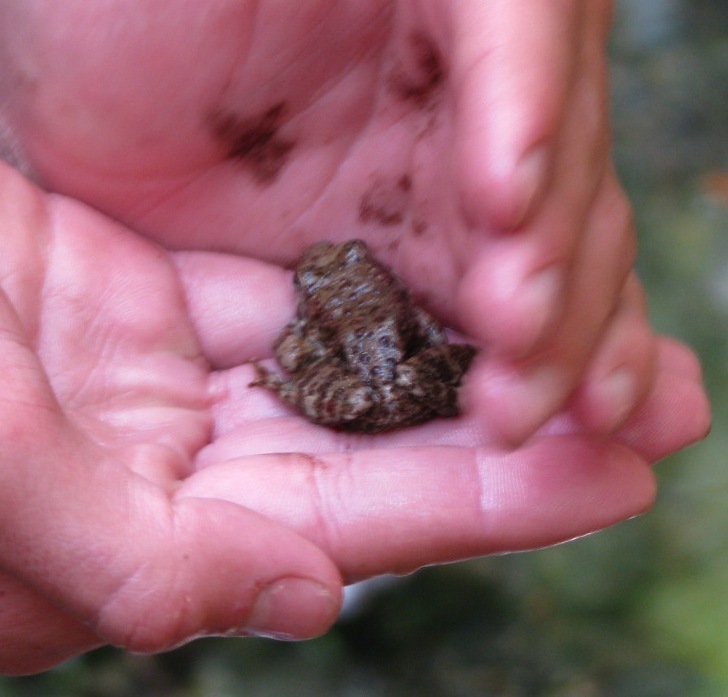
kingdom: Animalia
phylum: Chordata
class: Amphibia
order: Anura
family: Ranidae
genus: Rana
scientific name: Rana boylii
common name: Foothill yellow-legged frog
